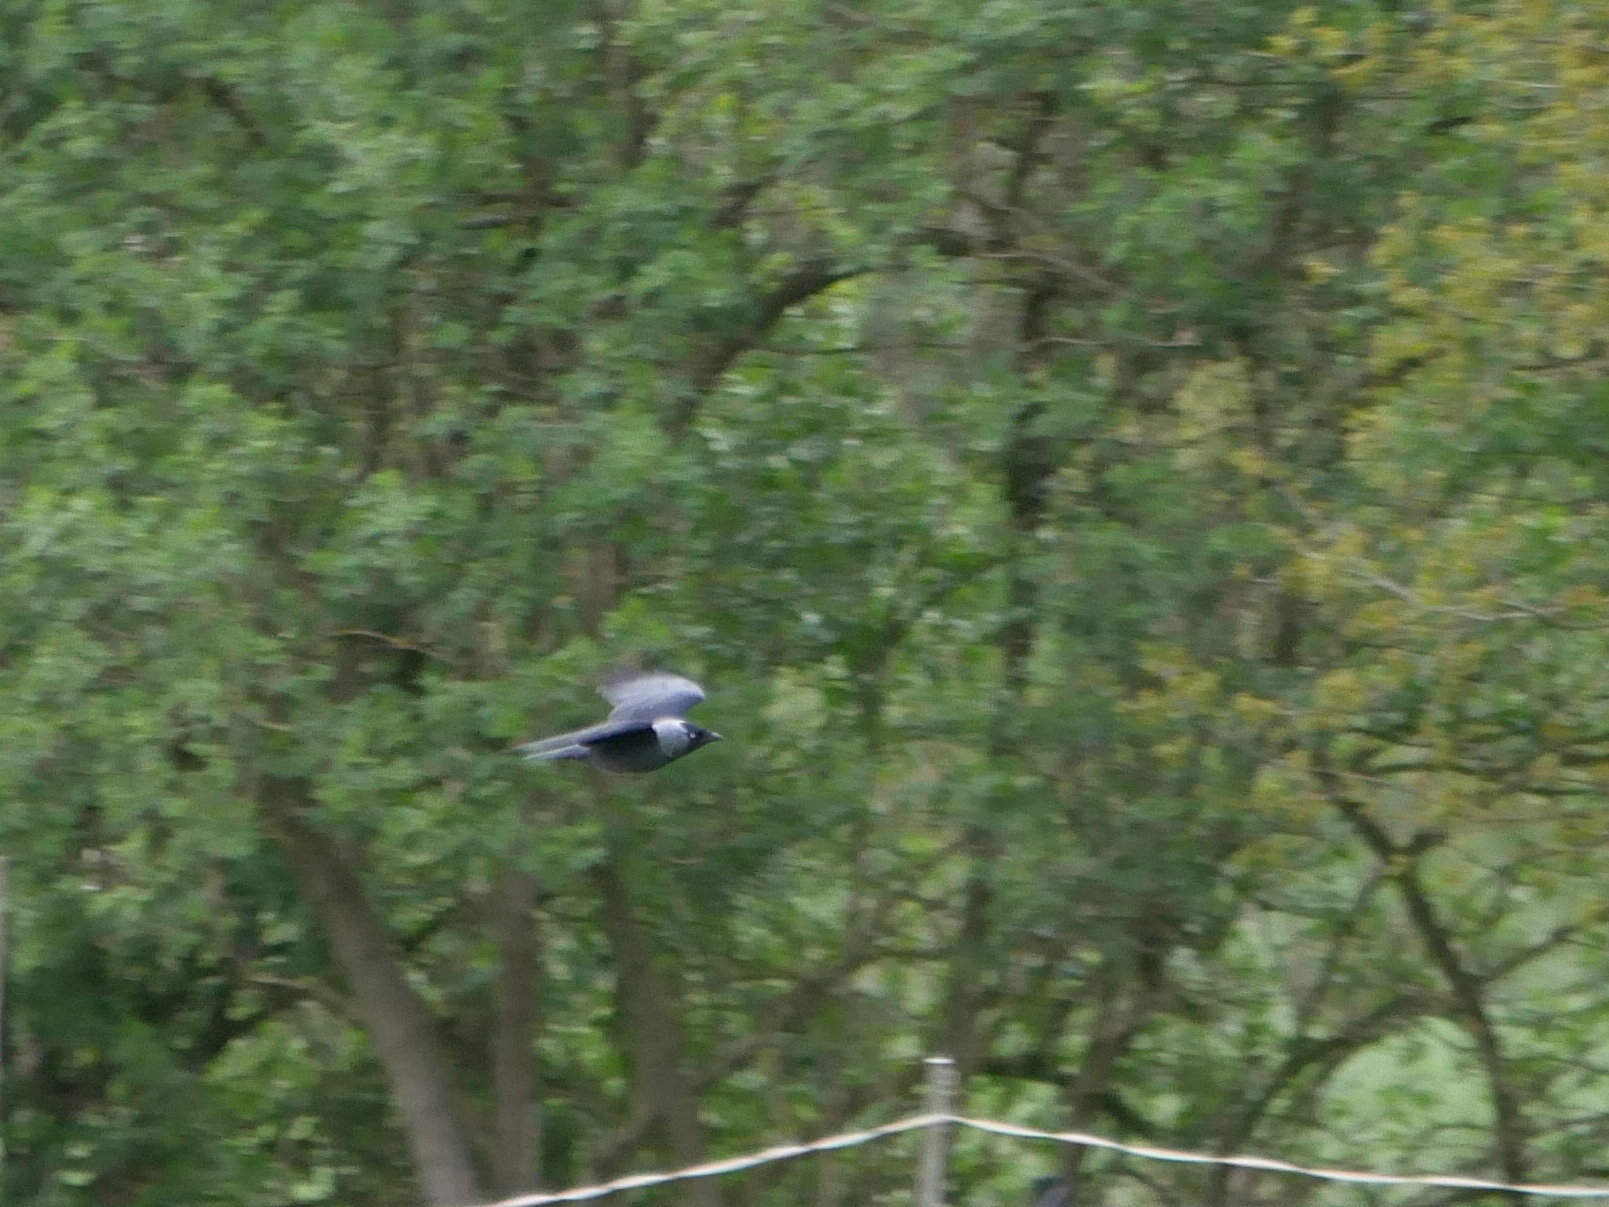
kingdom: Animalia
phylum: Chordata
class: Aves
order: Passeriformes
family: Corvidae
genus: Coloeus
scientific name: Coloeus monedula
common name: Western jackdaw
